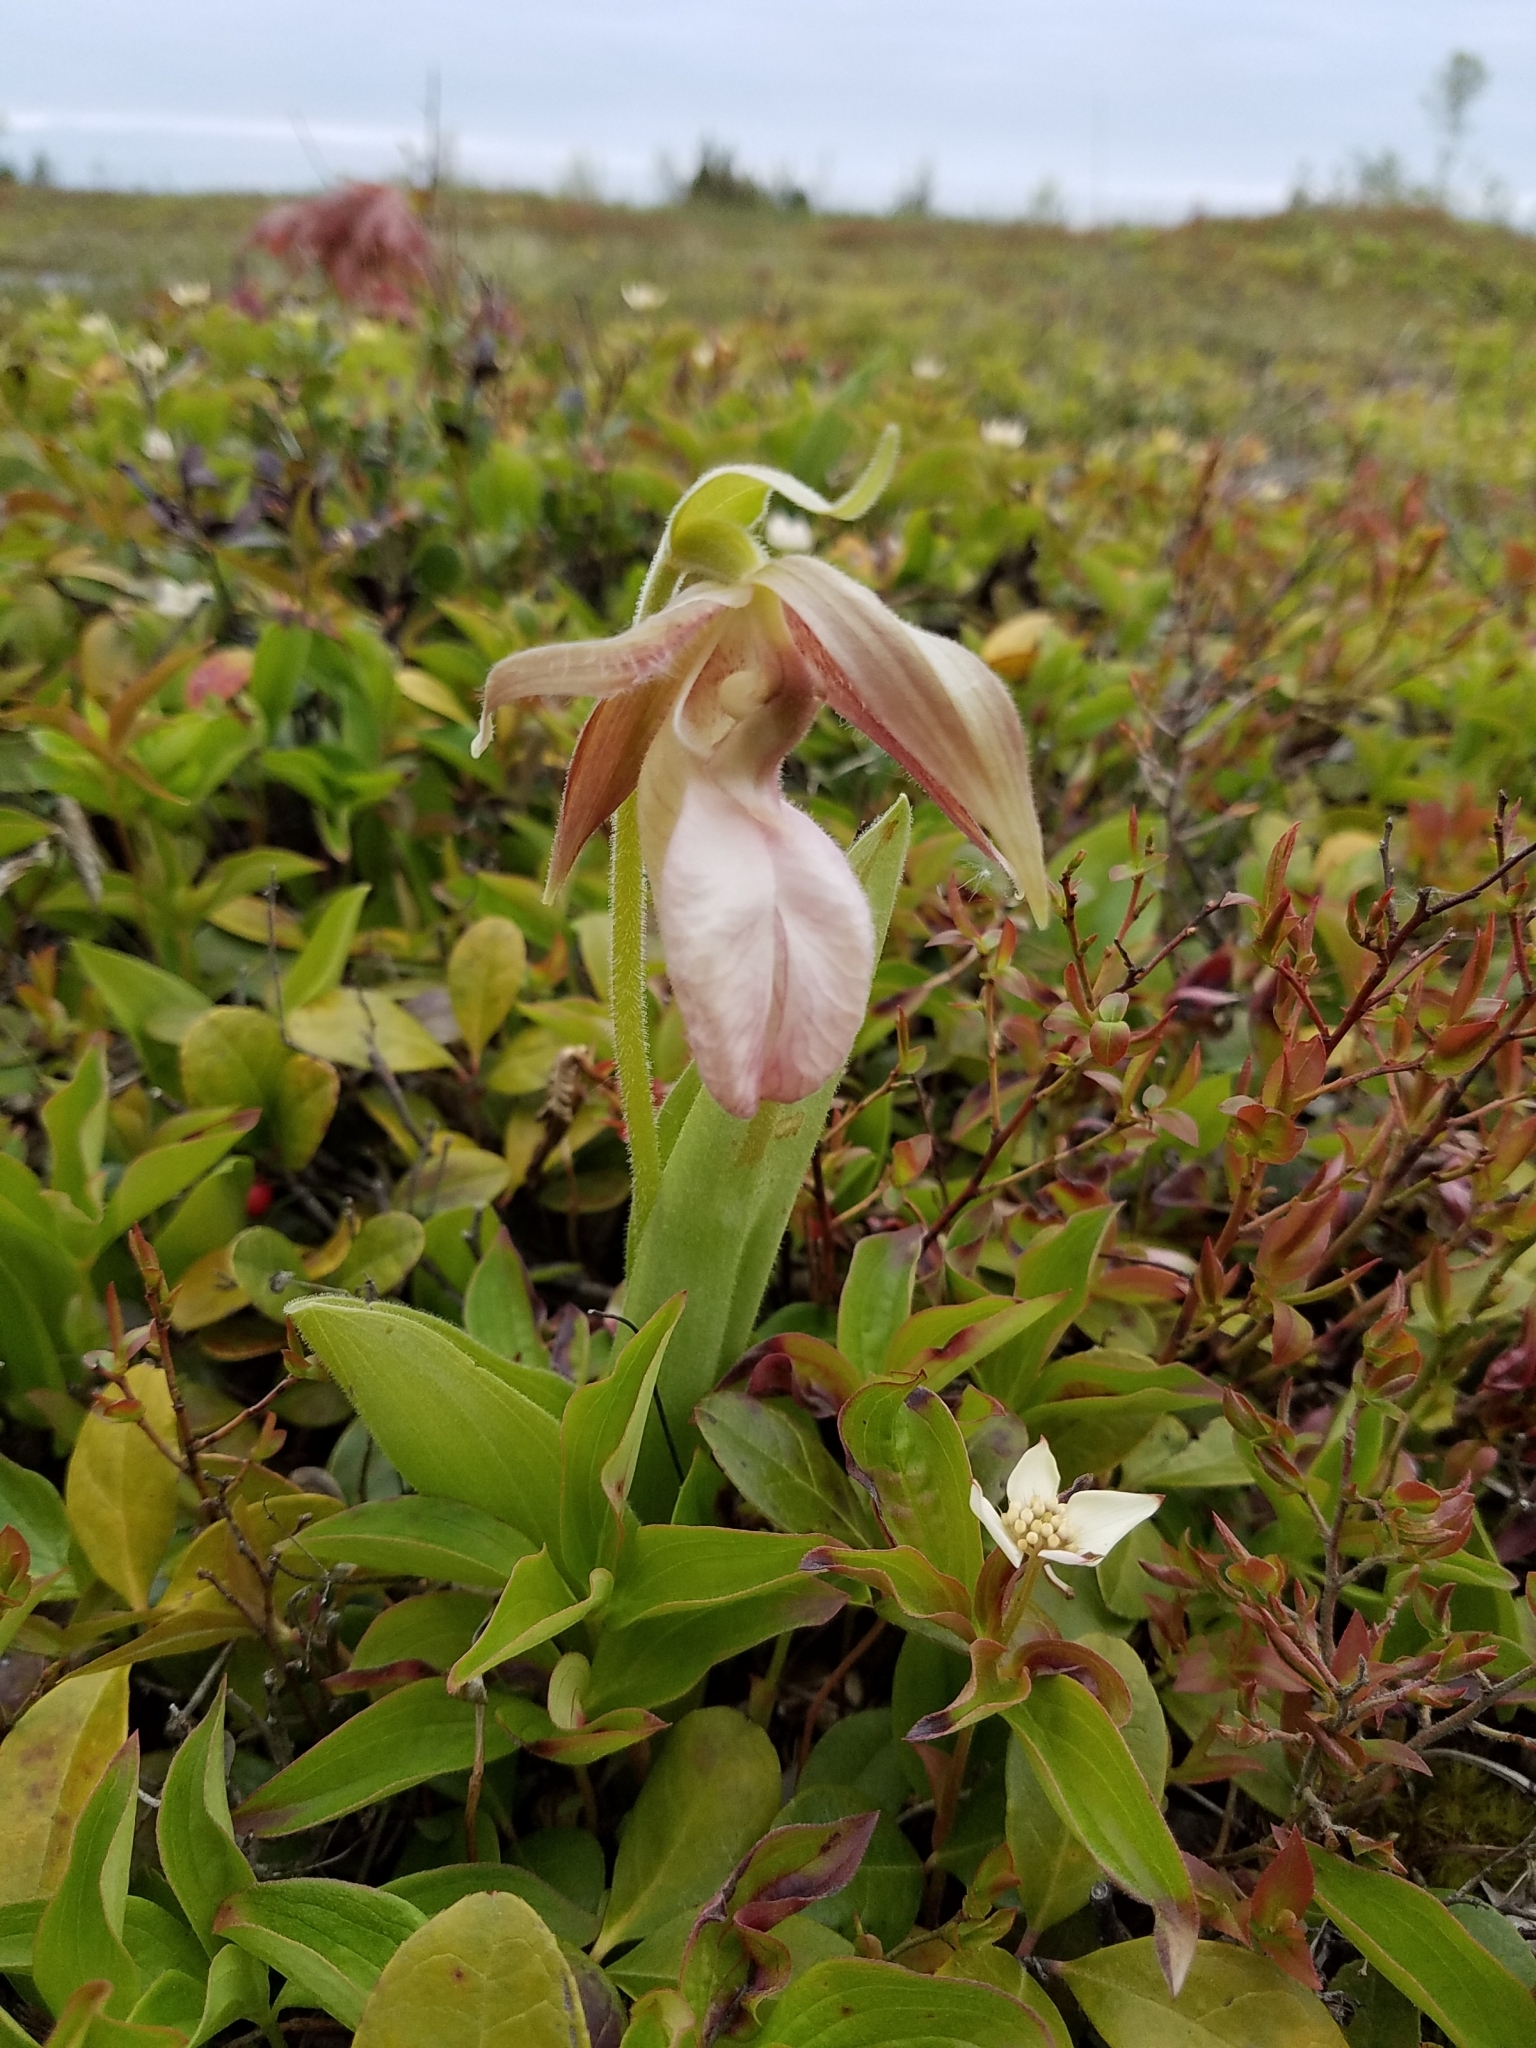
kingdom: Plantae
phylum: Tracheophyta
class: Liliopsida
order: Asparagales
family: Orchidaceae
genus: Cypripedium
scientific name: Cypripedium acaule
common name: Pink lady's-slipper
